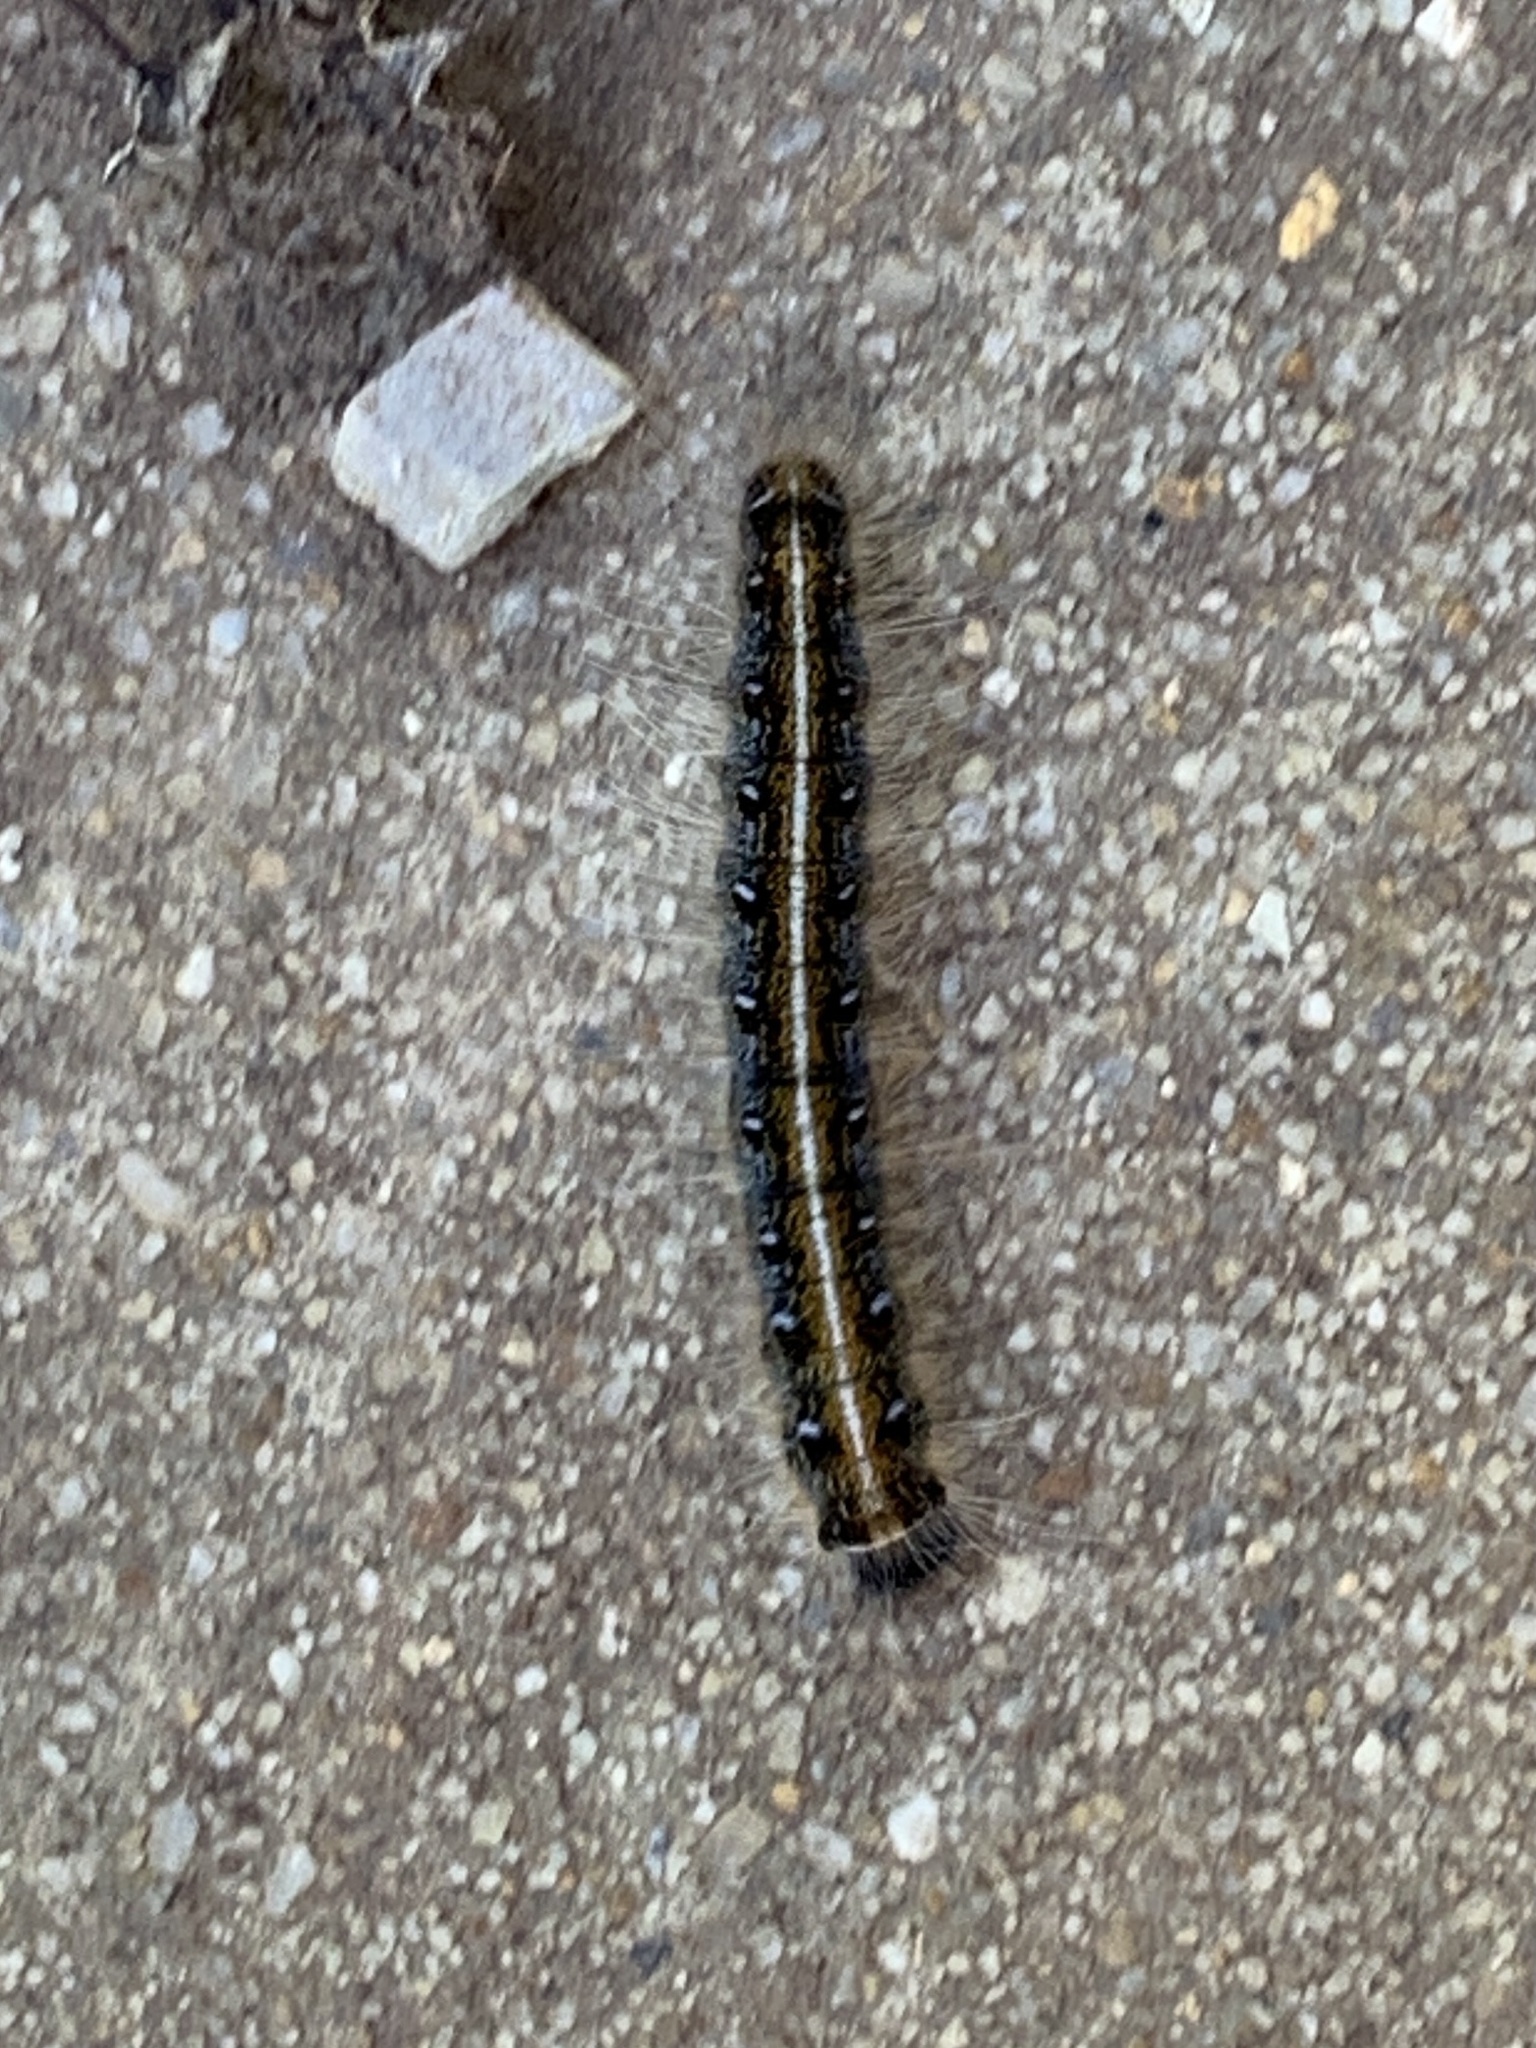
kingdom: Animalia
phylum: Arthropoda
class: Insecta
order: Lepidoptera
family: Lasiocampidae
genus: Malacosoma
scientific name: Malacosoma americana
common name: Eastern tent caterpillar moth
